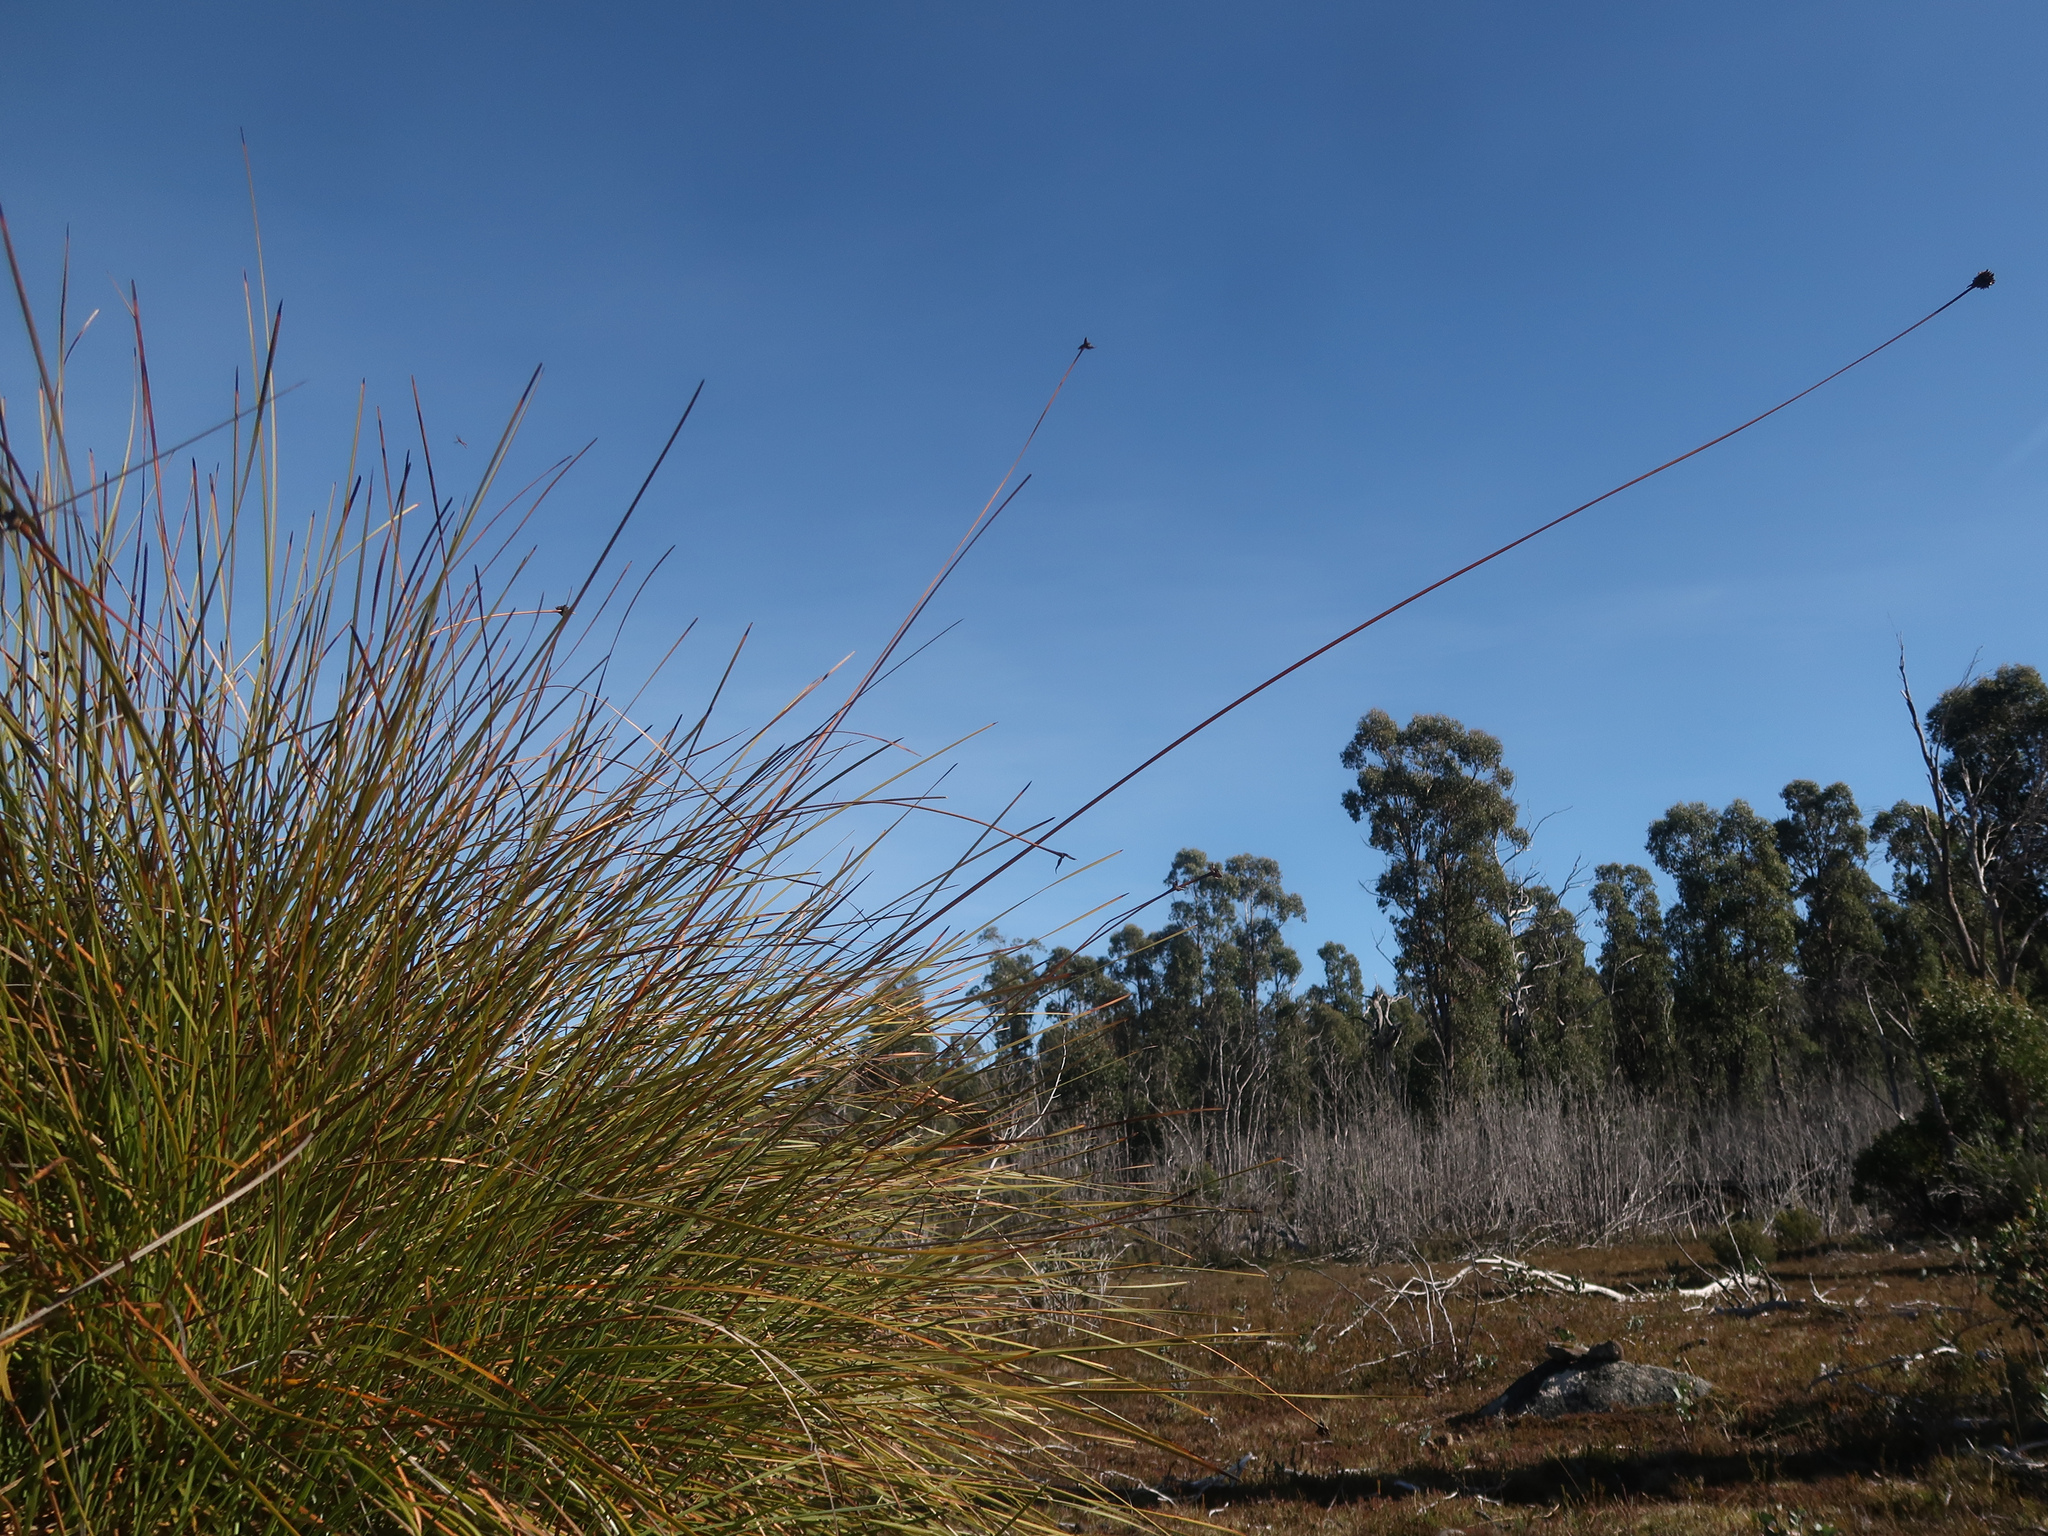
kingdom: Plantae
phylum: Tracheophyta
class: Liliopsida
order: Poales
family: Cyperaceae
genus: Gymnoschoenus
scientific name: Gymnoschoenus sphaerocephalus
